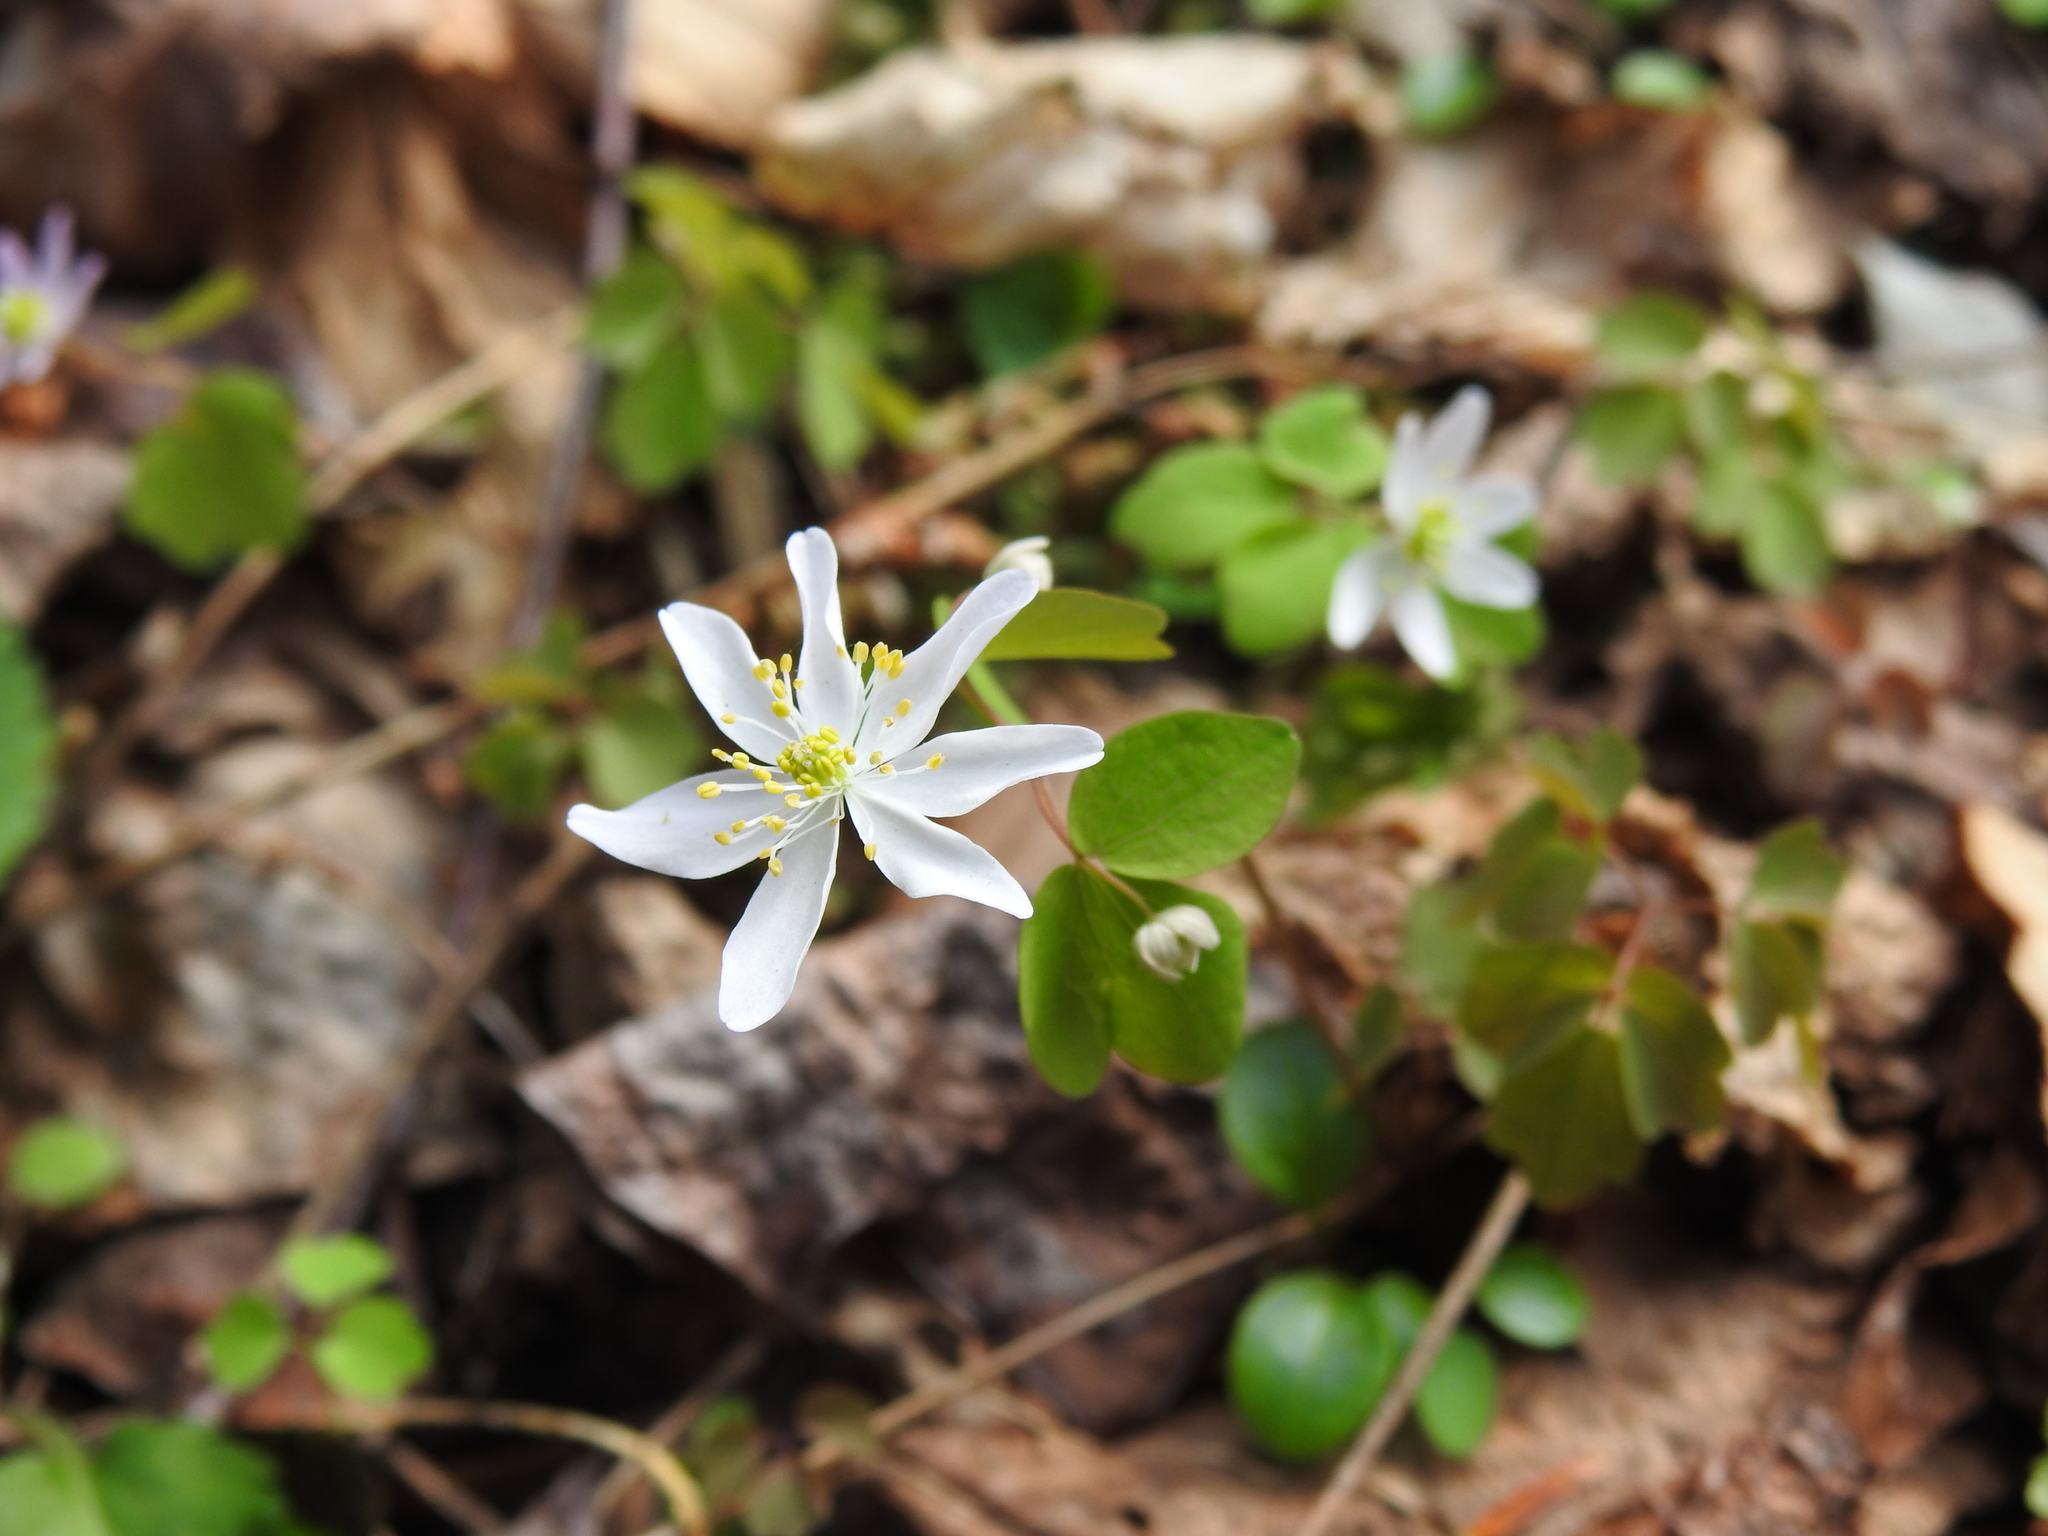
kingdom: Plantae
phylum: Tracheophyta
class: Magnoliopsida
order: Ranunculales
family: Ranunculaceae
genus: Thalictrum
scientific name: Thalictrum thalictroides
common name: Rue-anemone
